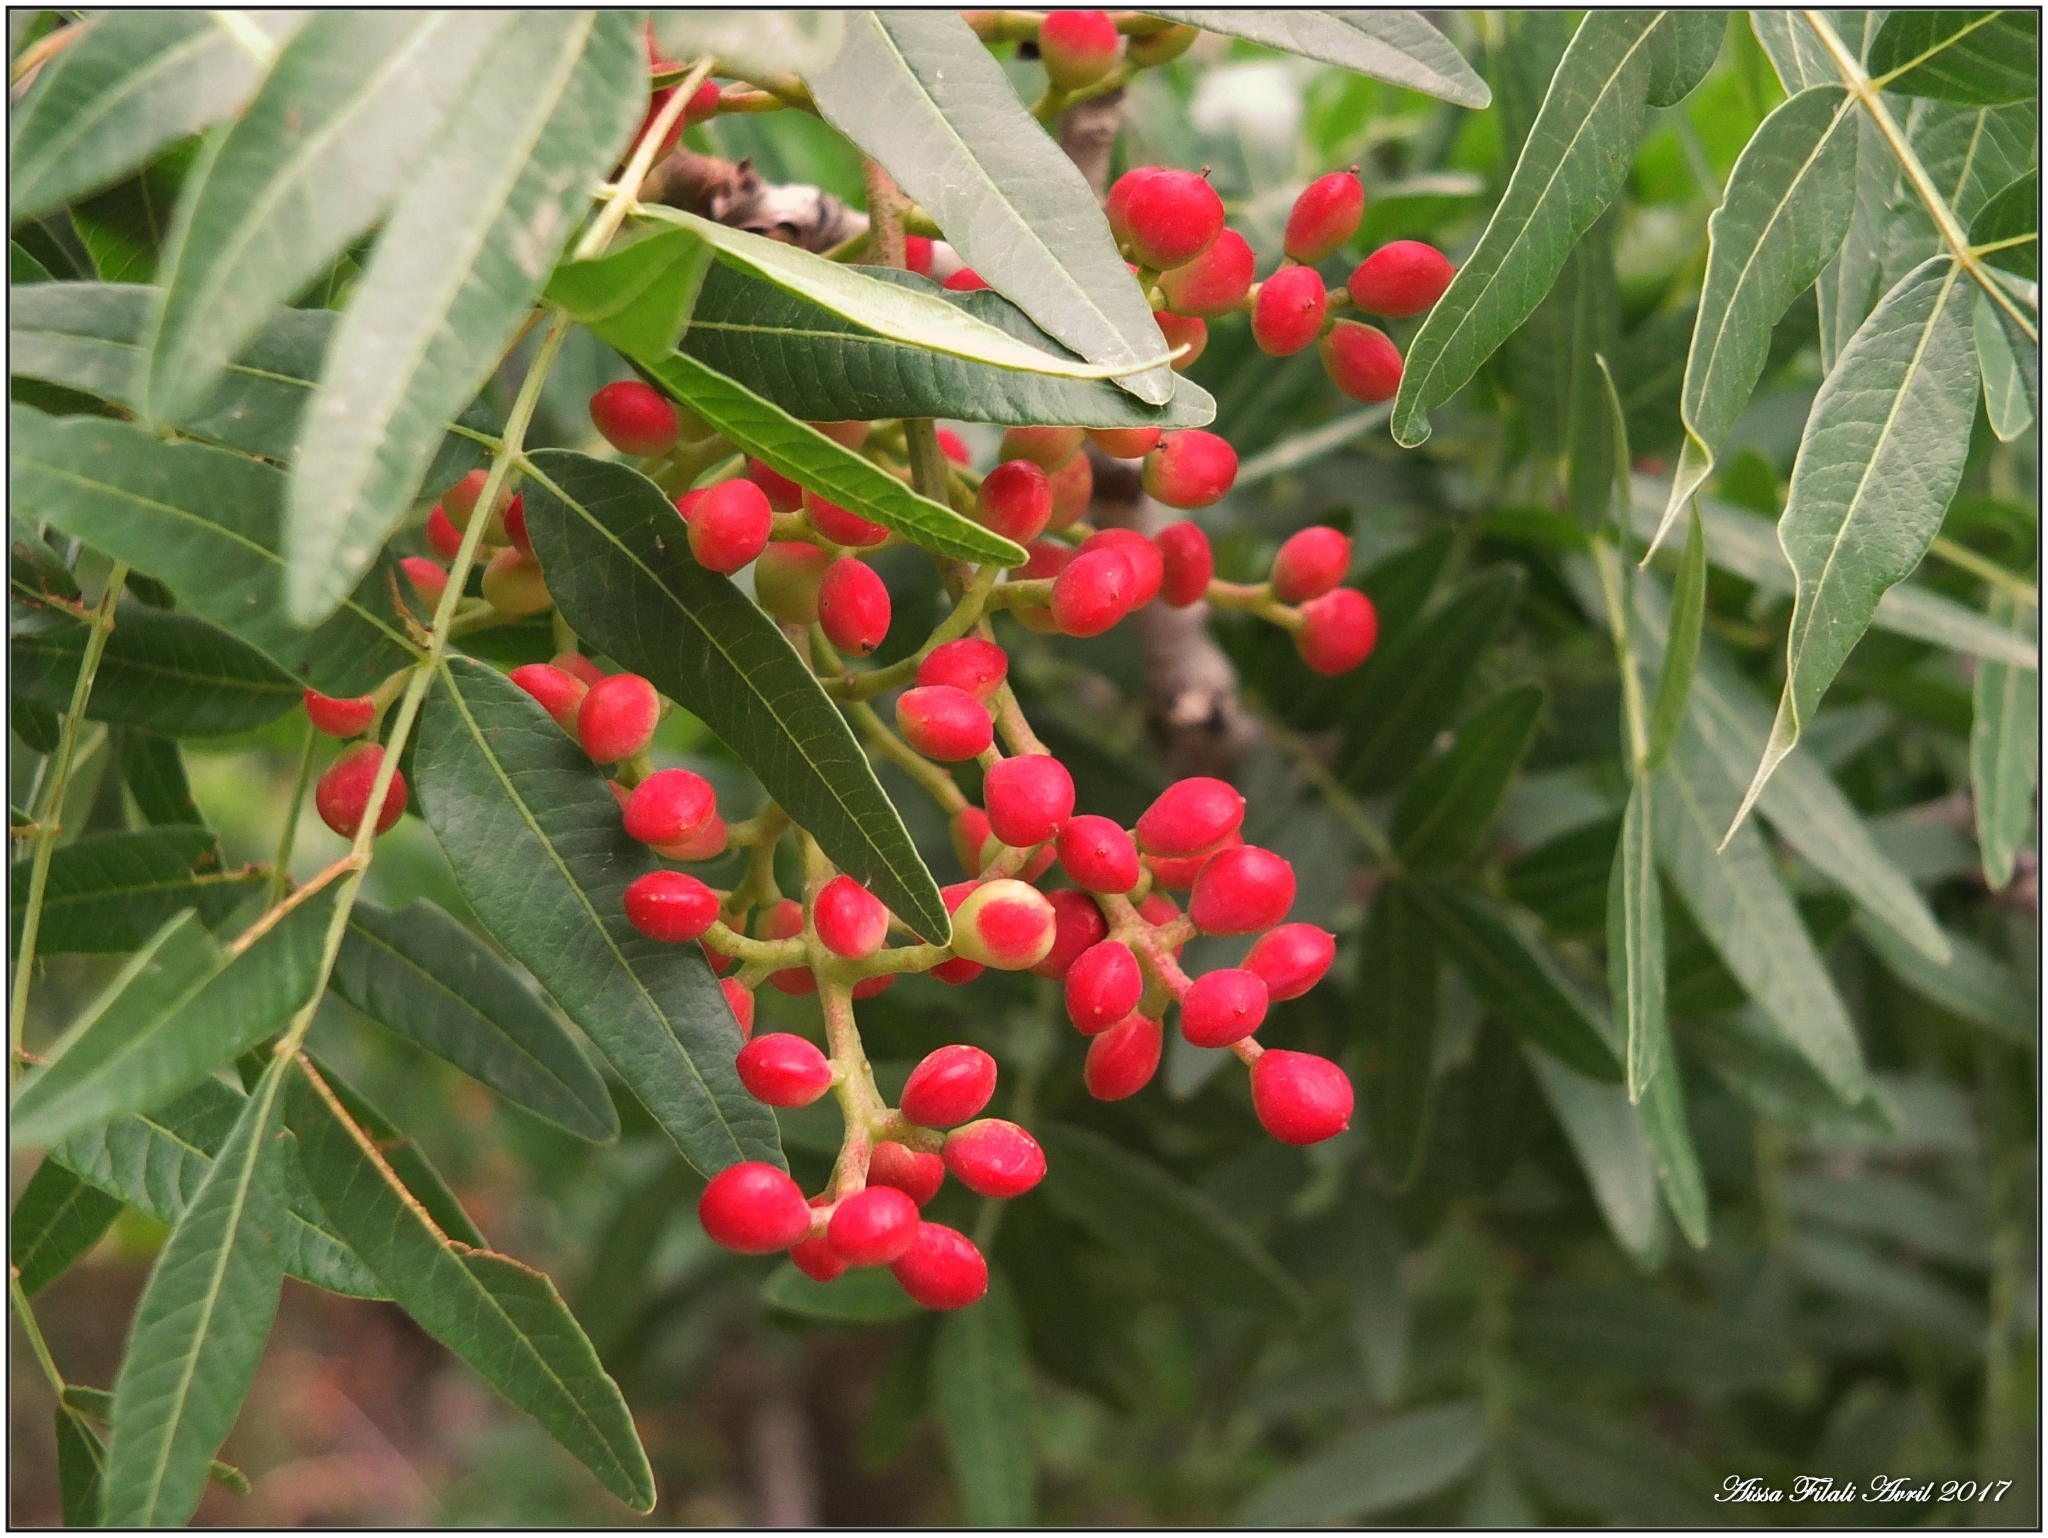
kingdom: Plantae
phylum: Tracheophyta
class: Magnoliopsida
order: Sapindales
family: Anacardiaceae
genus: Pistacia
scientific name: Pistacia lentiscus
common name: Lentisk
